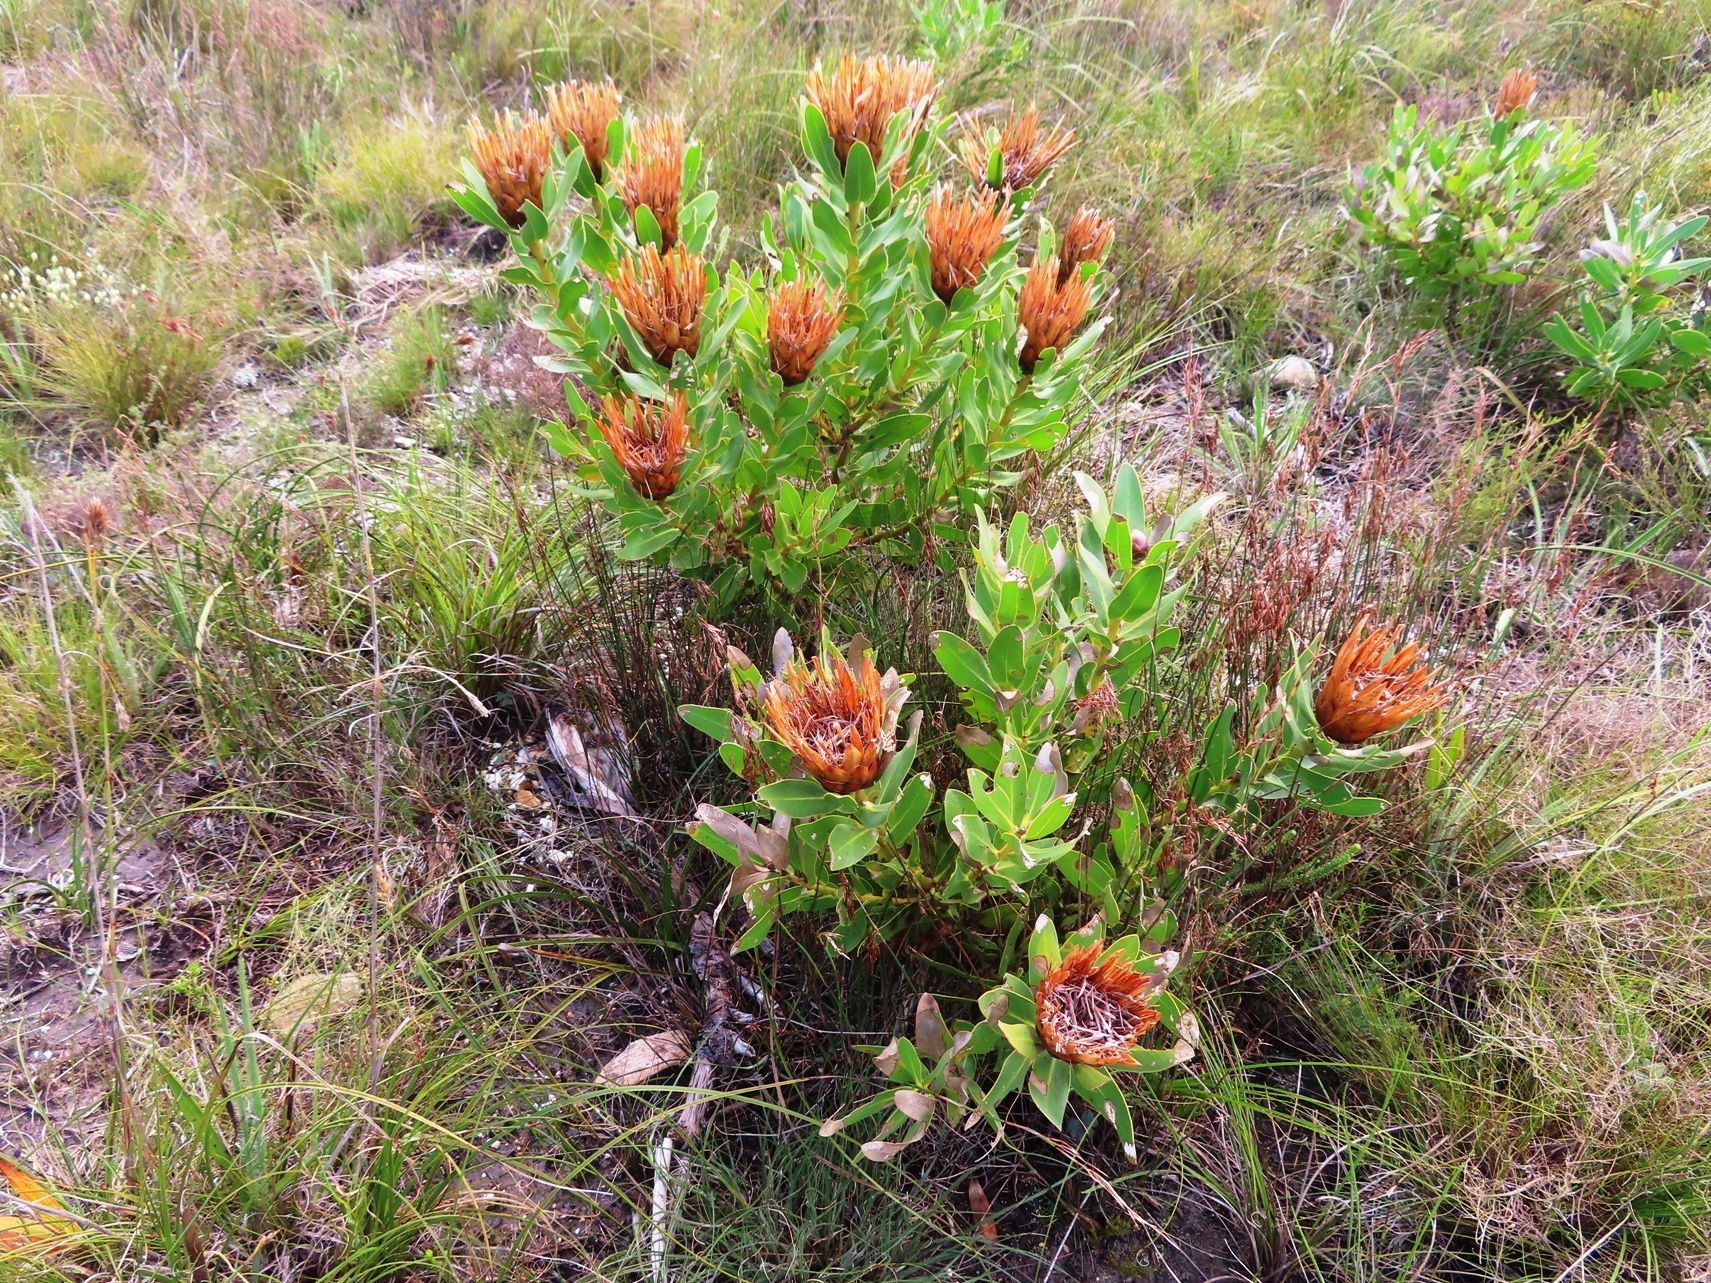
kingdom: Plantae
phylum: Tracheophyta
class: Magnoliopsida
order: Proteales
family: Proteaceae
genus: Protea
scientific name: Protea compacta
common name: Bot river protea
